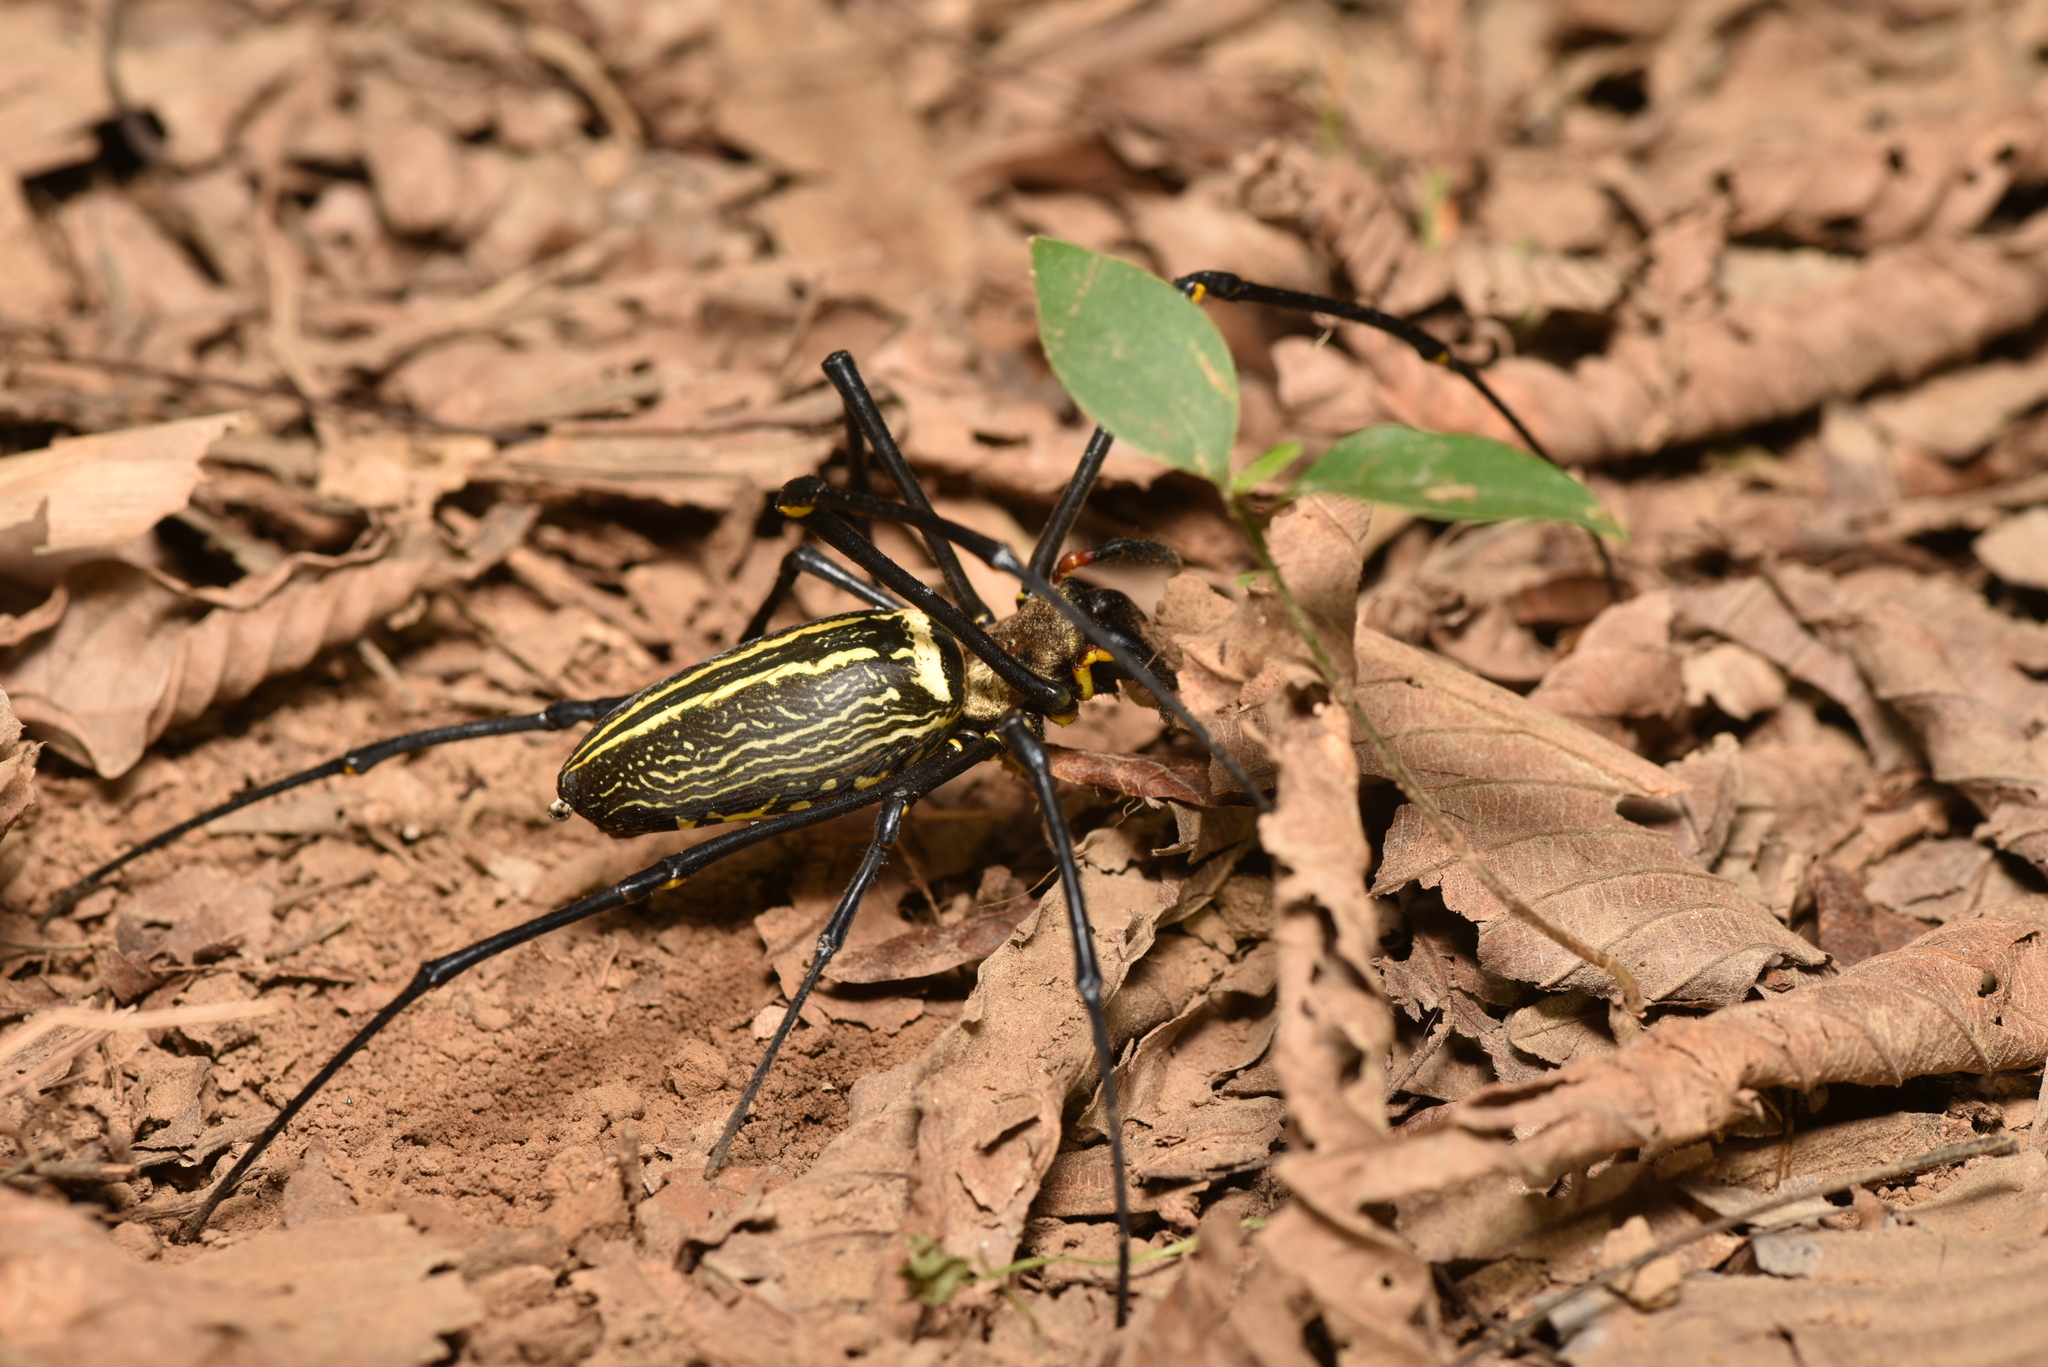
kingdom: Animalia
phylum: Arthropoda
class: Arachnida
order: Araneae
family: Araneidae
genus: Nephila
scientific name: Nephila pilipes
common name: Giant golden orb weaver
